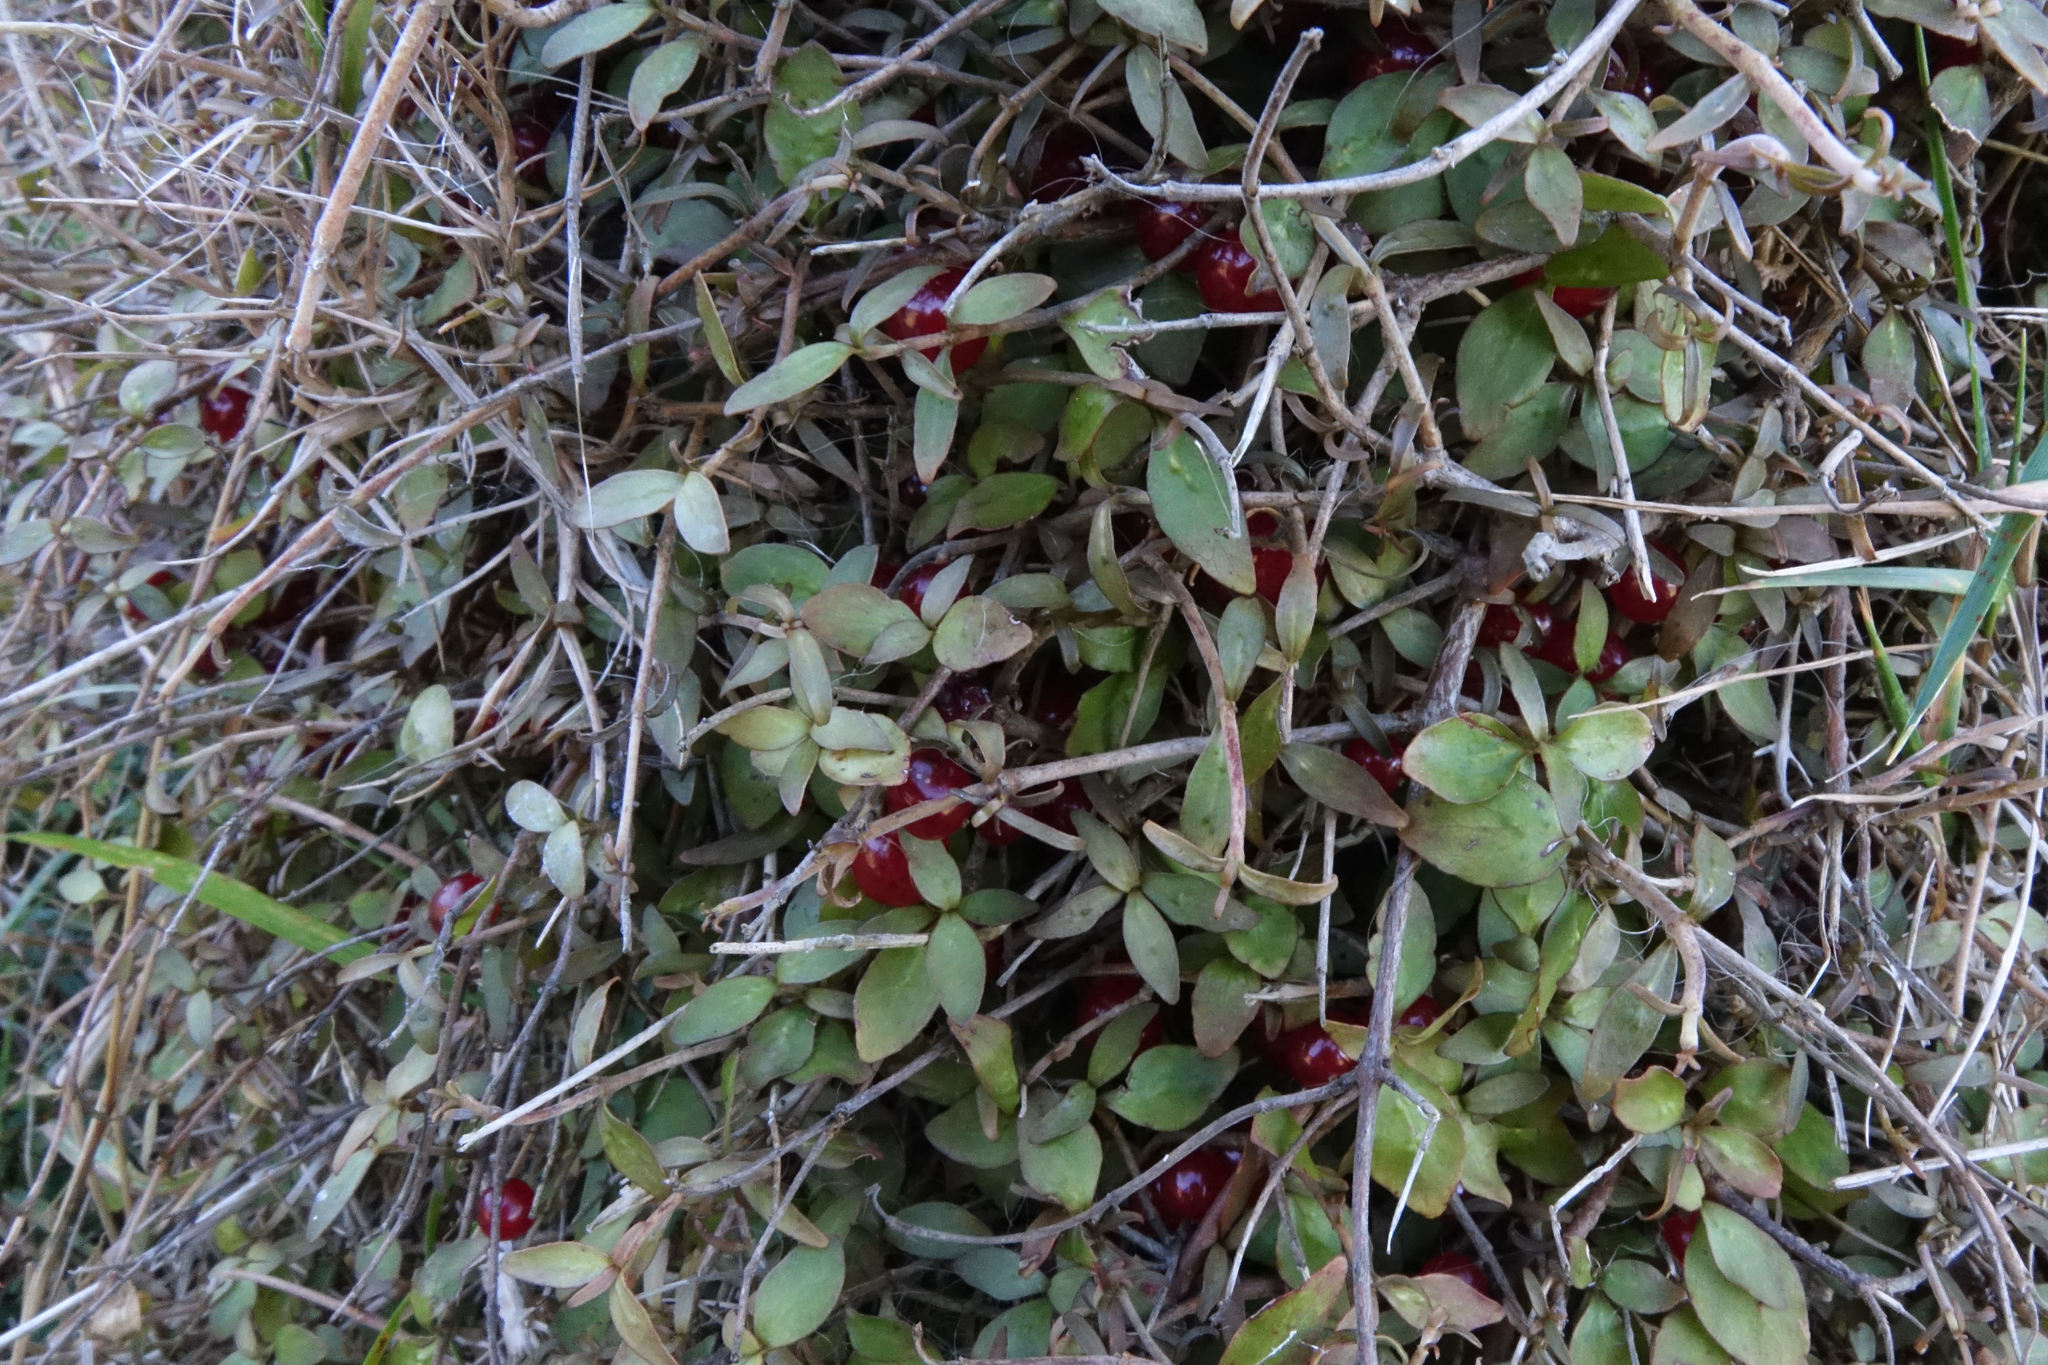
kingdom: Plantae
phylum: Tracheophyta
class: Magnoliopsida
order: Gentianales
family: Rubiaceae
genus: Coprosma
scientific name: Coprosma rhamnoides
